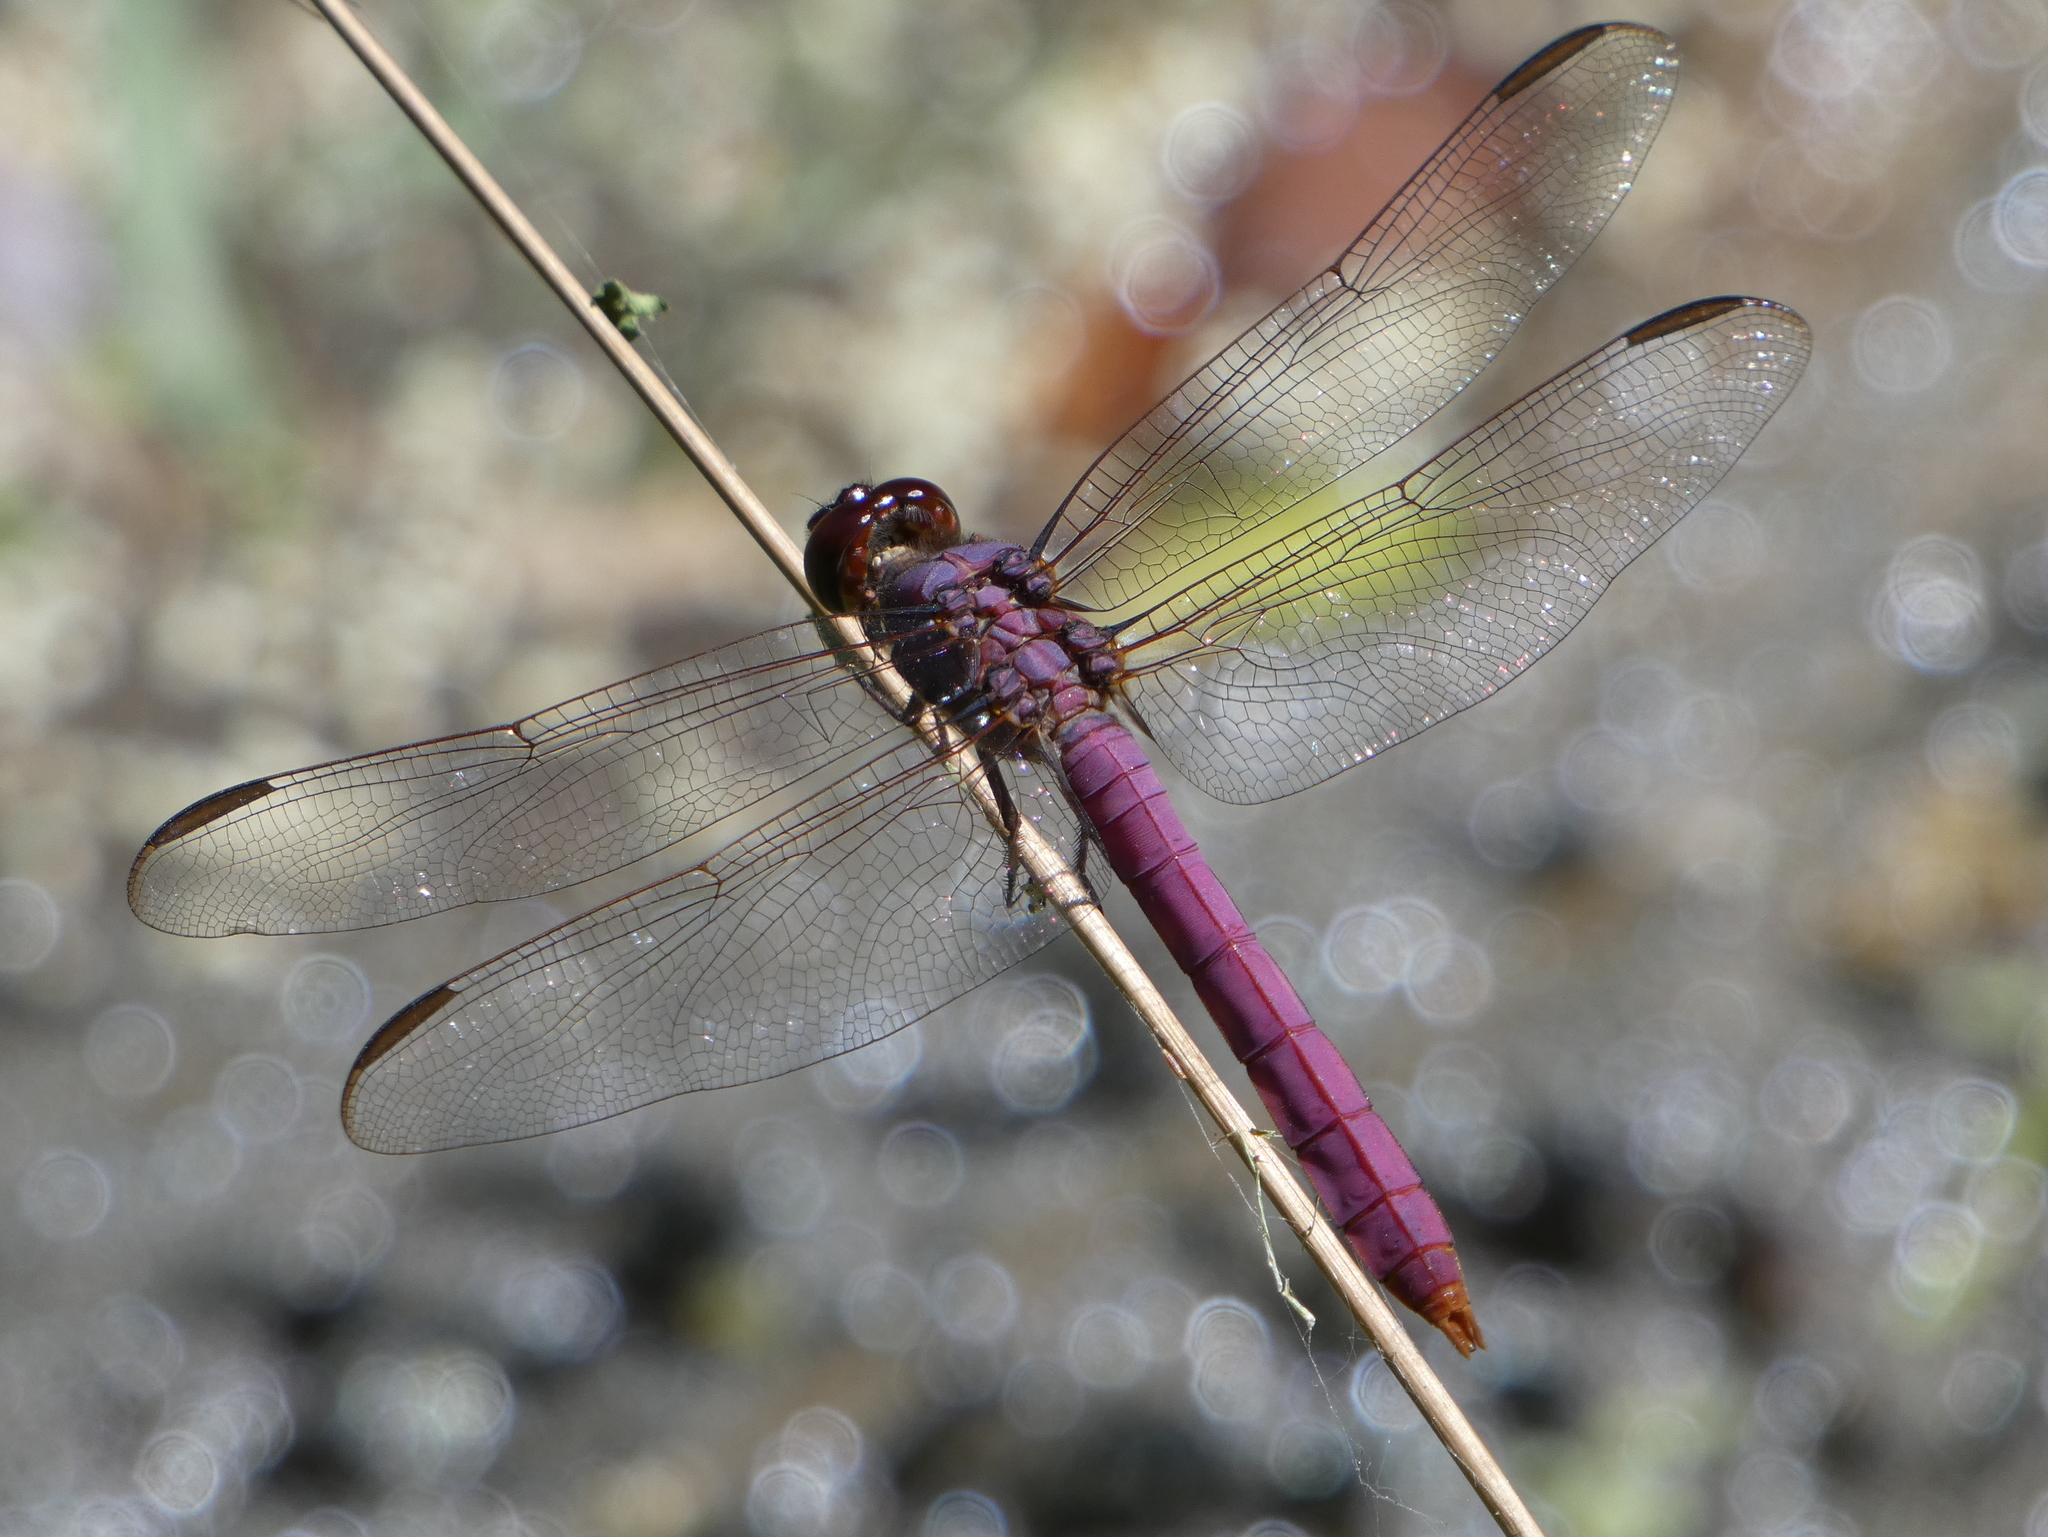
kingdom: Animalia
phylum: Arthropoda
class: Insecta
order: Odonata
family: Libellulidae
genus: Orthemis
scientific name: Orthemis ferruginea
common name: Roseate skimmer
